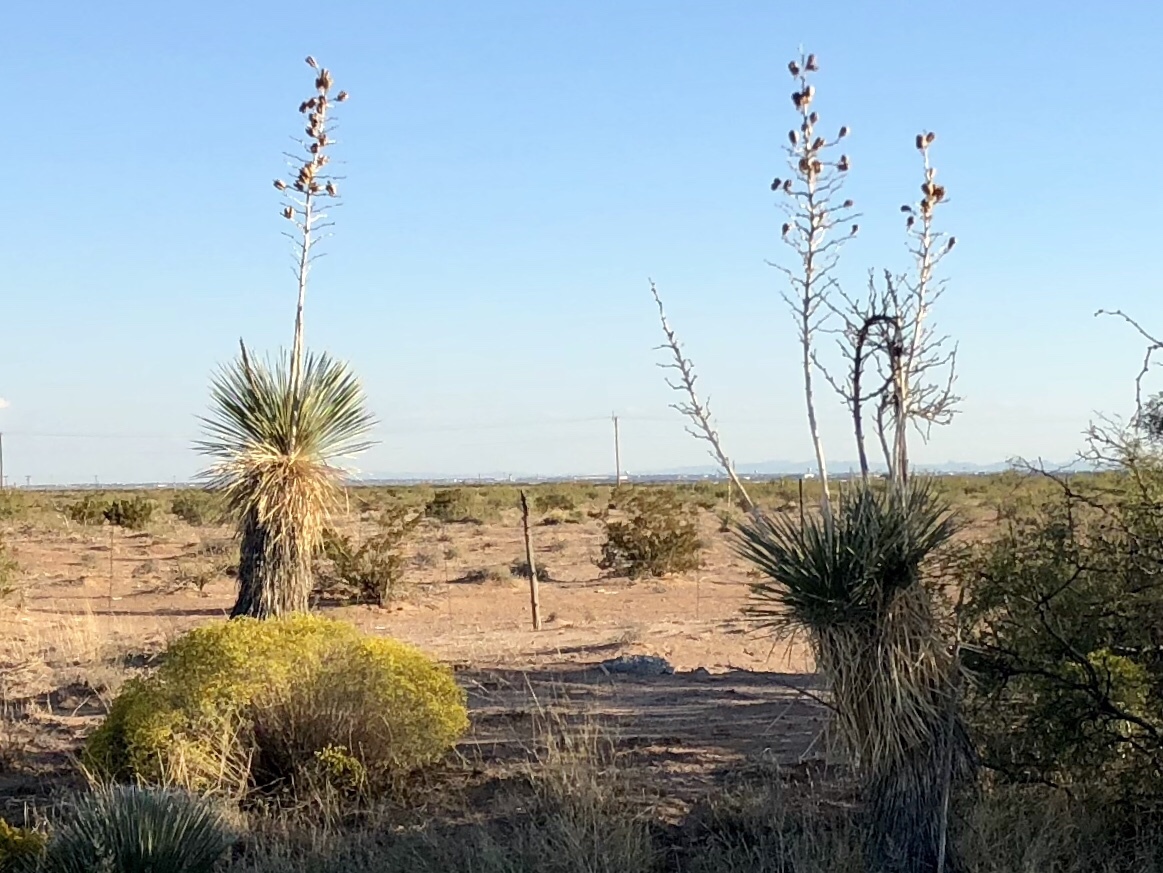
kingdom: Plantae
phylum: Tracheophyta
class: Liliopsida
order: Asparagales
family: Asparagaceae
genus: Yucca
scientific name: Yucca elata
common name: Palmella
